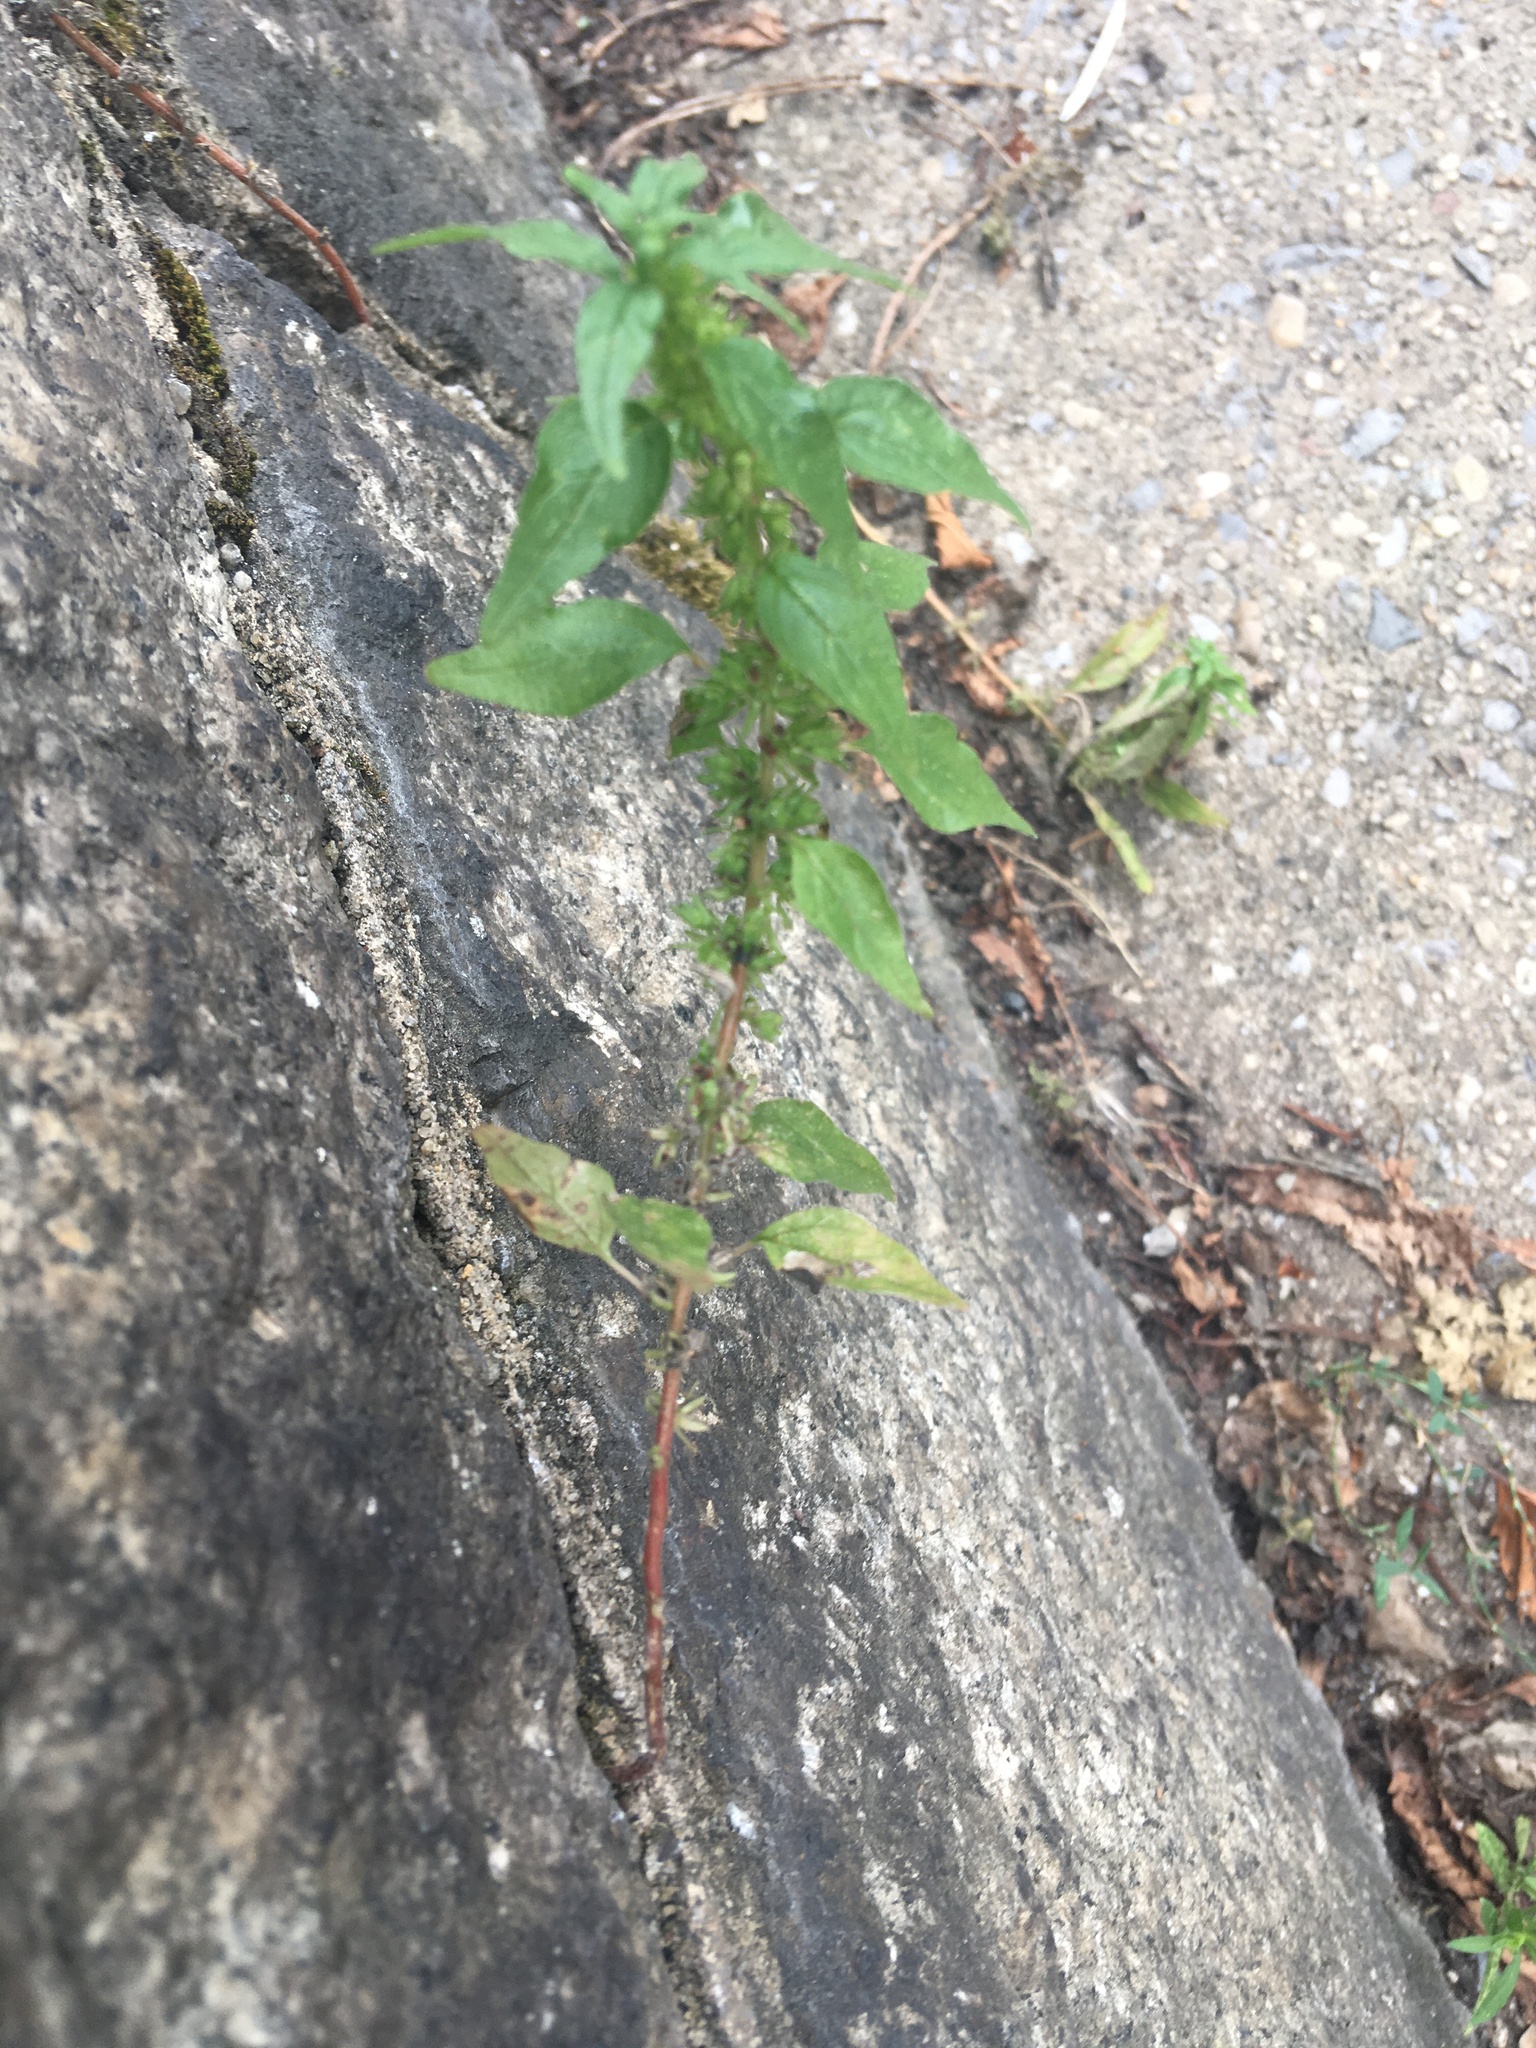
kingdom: Plantae
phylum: Tracheophyta
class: Magnoliopsida
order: Rosales
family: Urticaceae
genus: Parietaria
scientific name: Parietaria pensylvanica
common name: Pennsylvania pellitory
